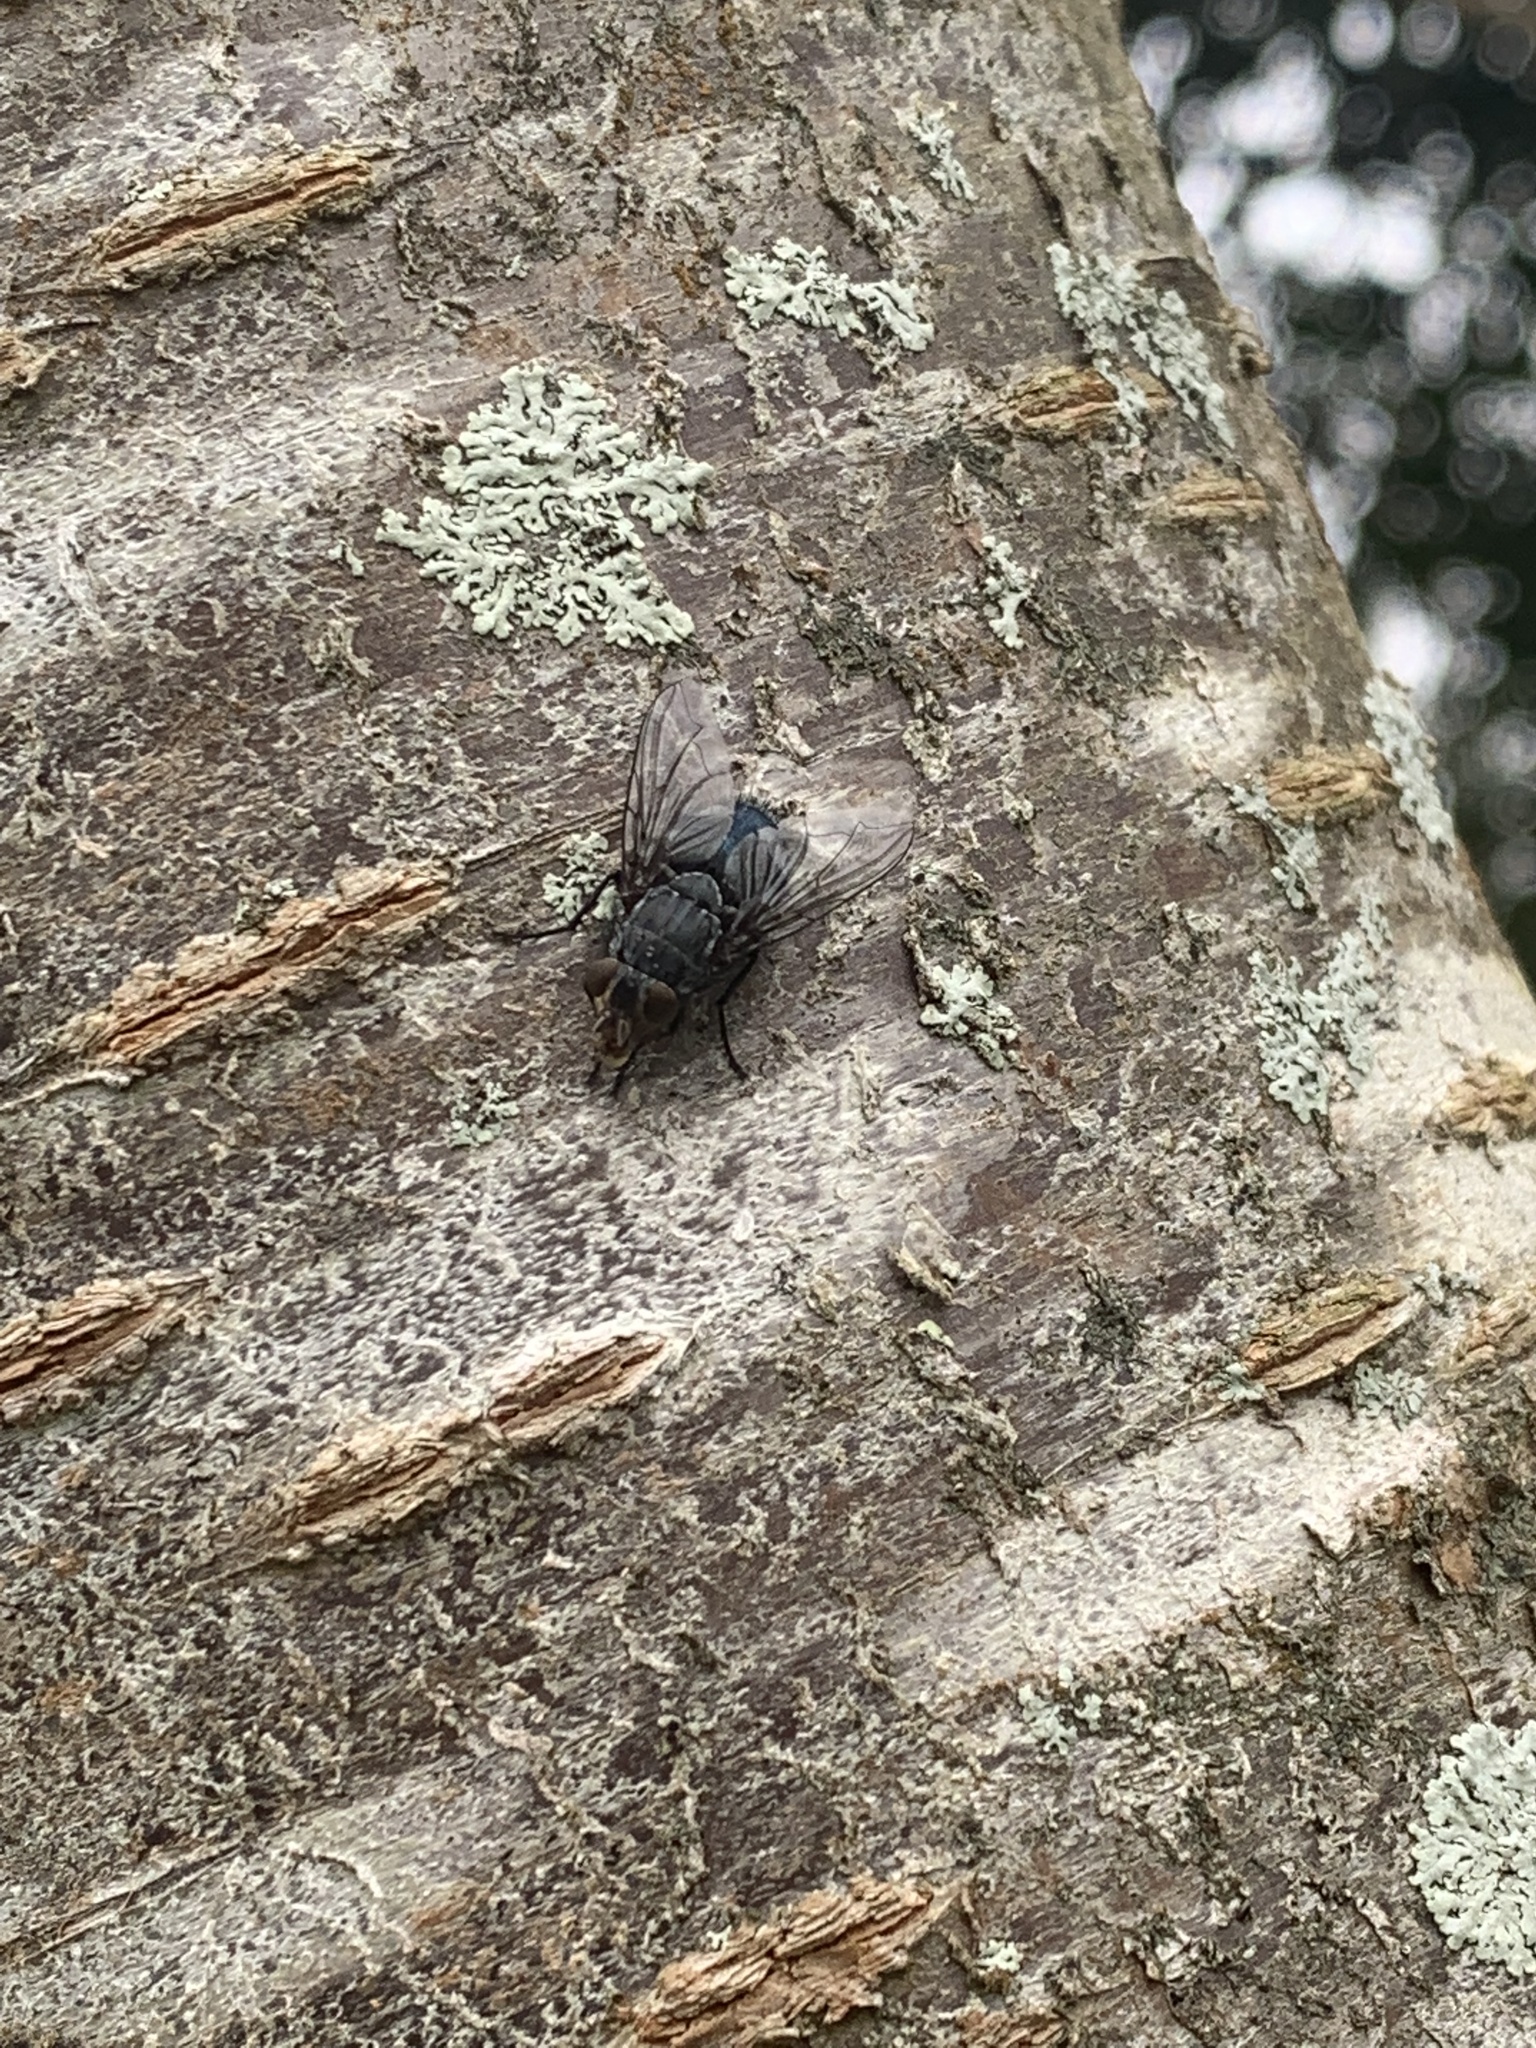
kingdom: Animalia
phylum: Arthropoda
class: Insecta
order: Diptera
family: Calliphoridae
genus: Calliphora
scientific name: Calliphora vicina
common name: Common blow flie
